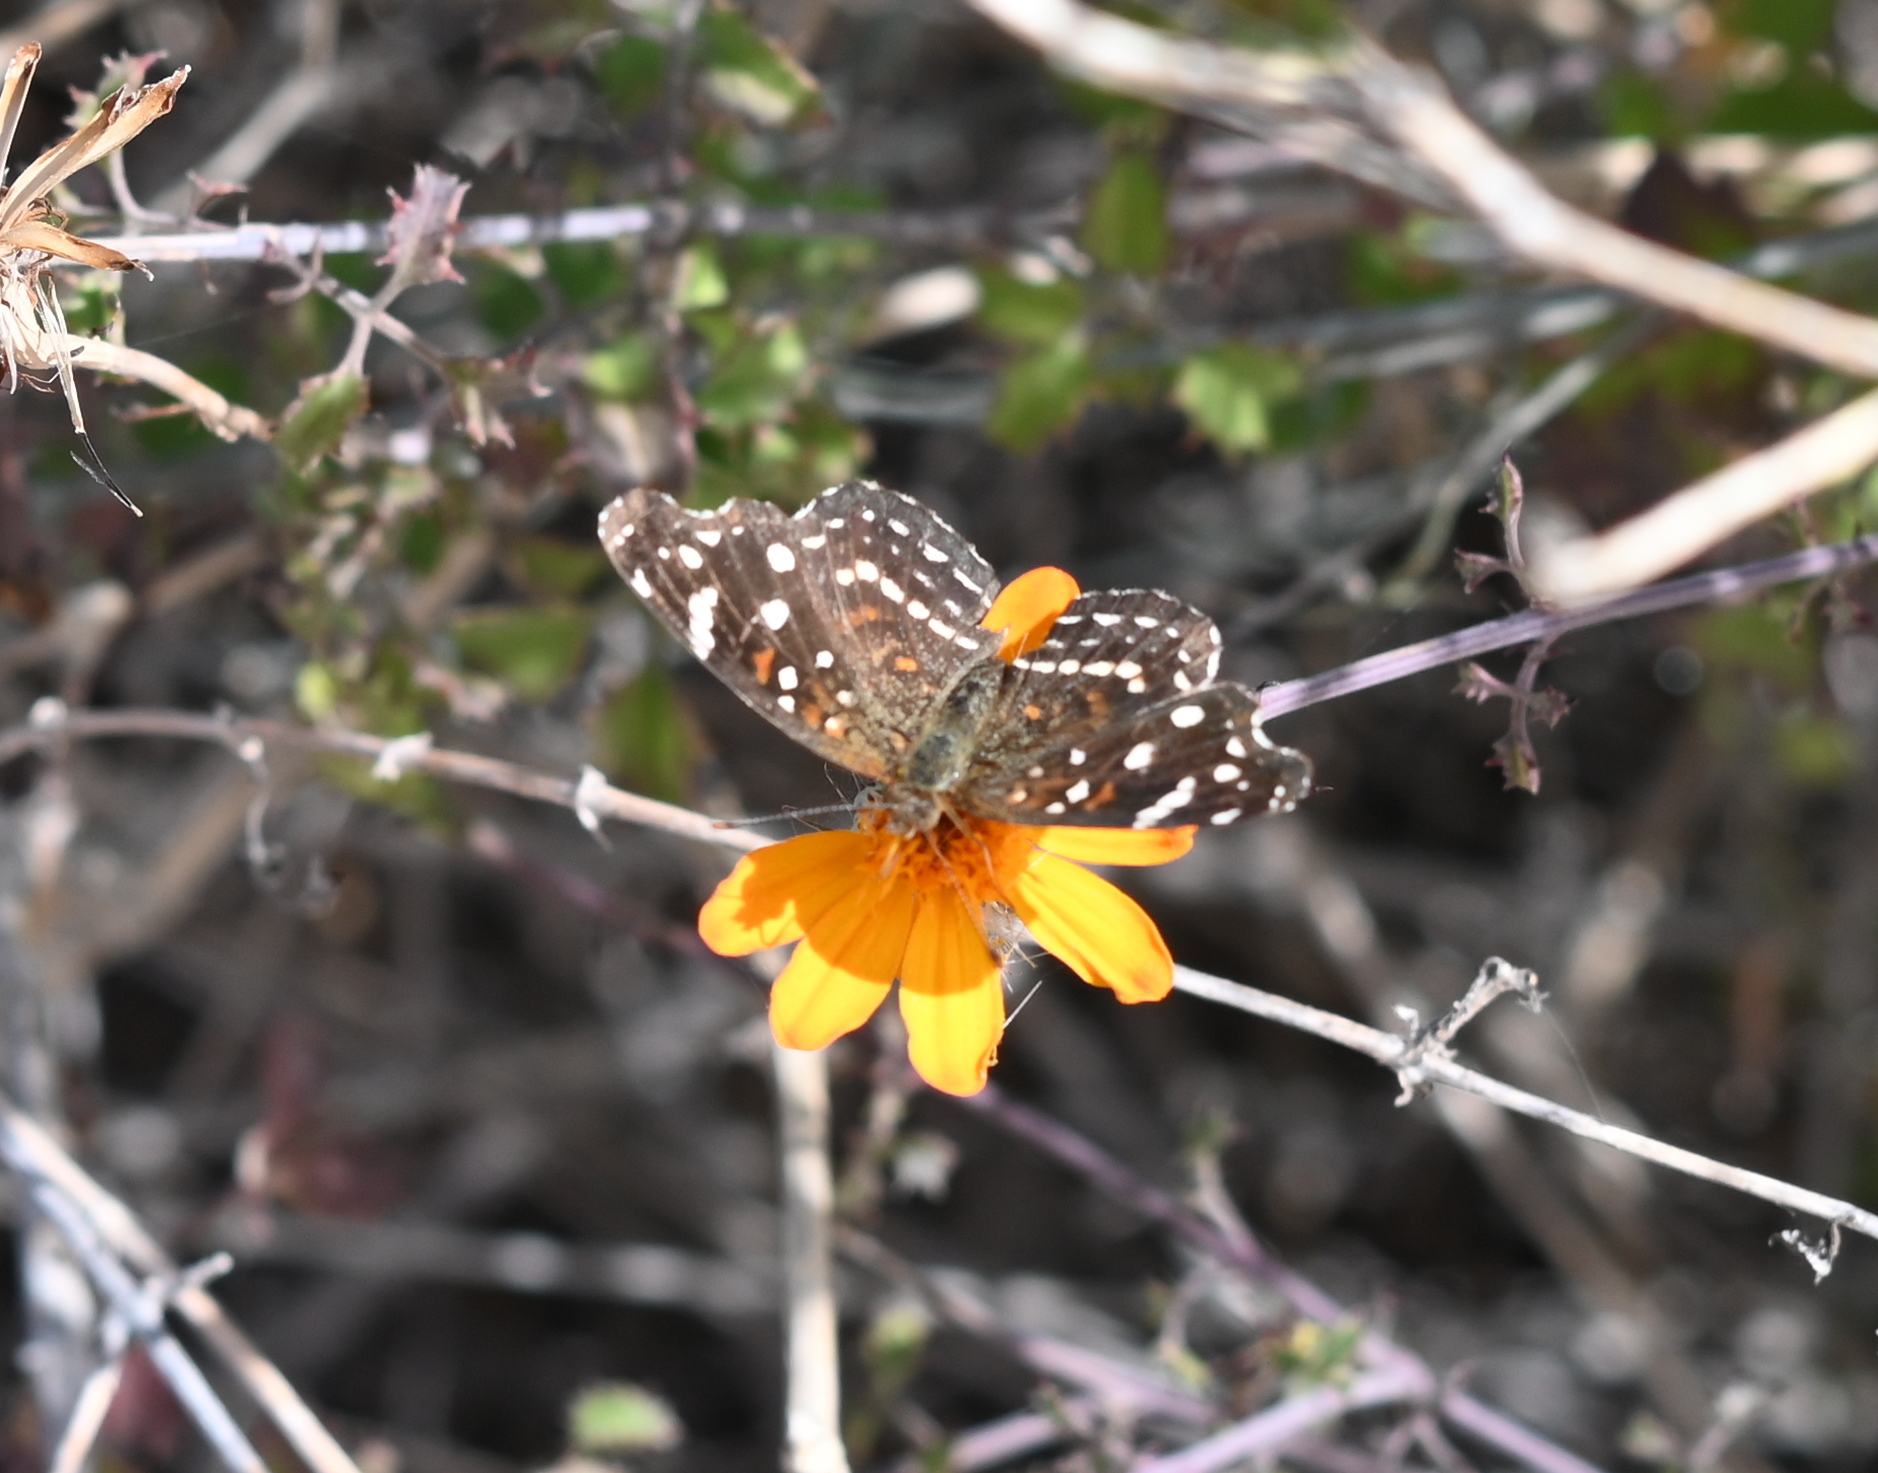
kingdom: Animalia
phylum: Arthropoda
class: Insecta
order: Lepidoptera
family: Nymphalidae
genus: Anthanassa
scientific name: Anthanassa texana
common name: Texan crescent
